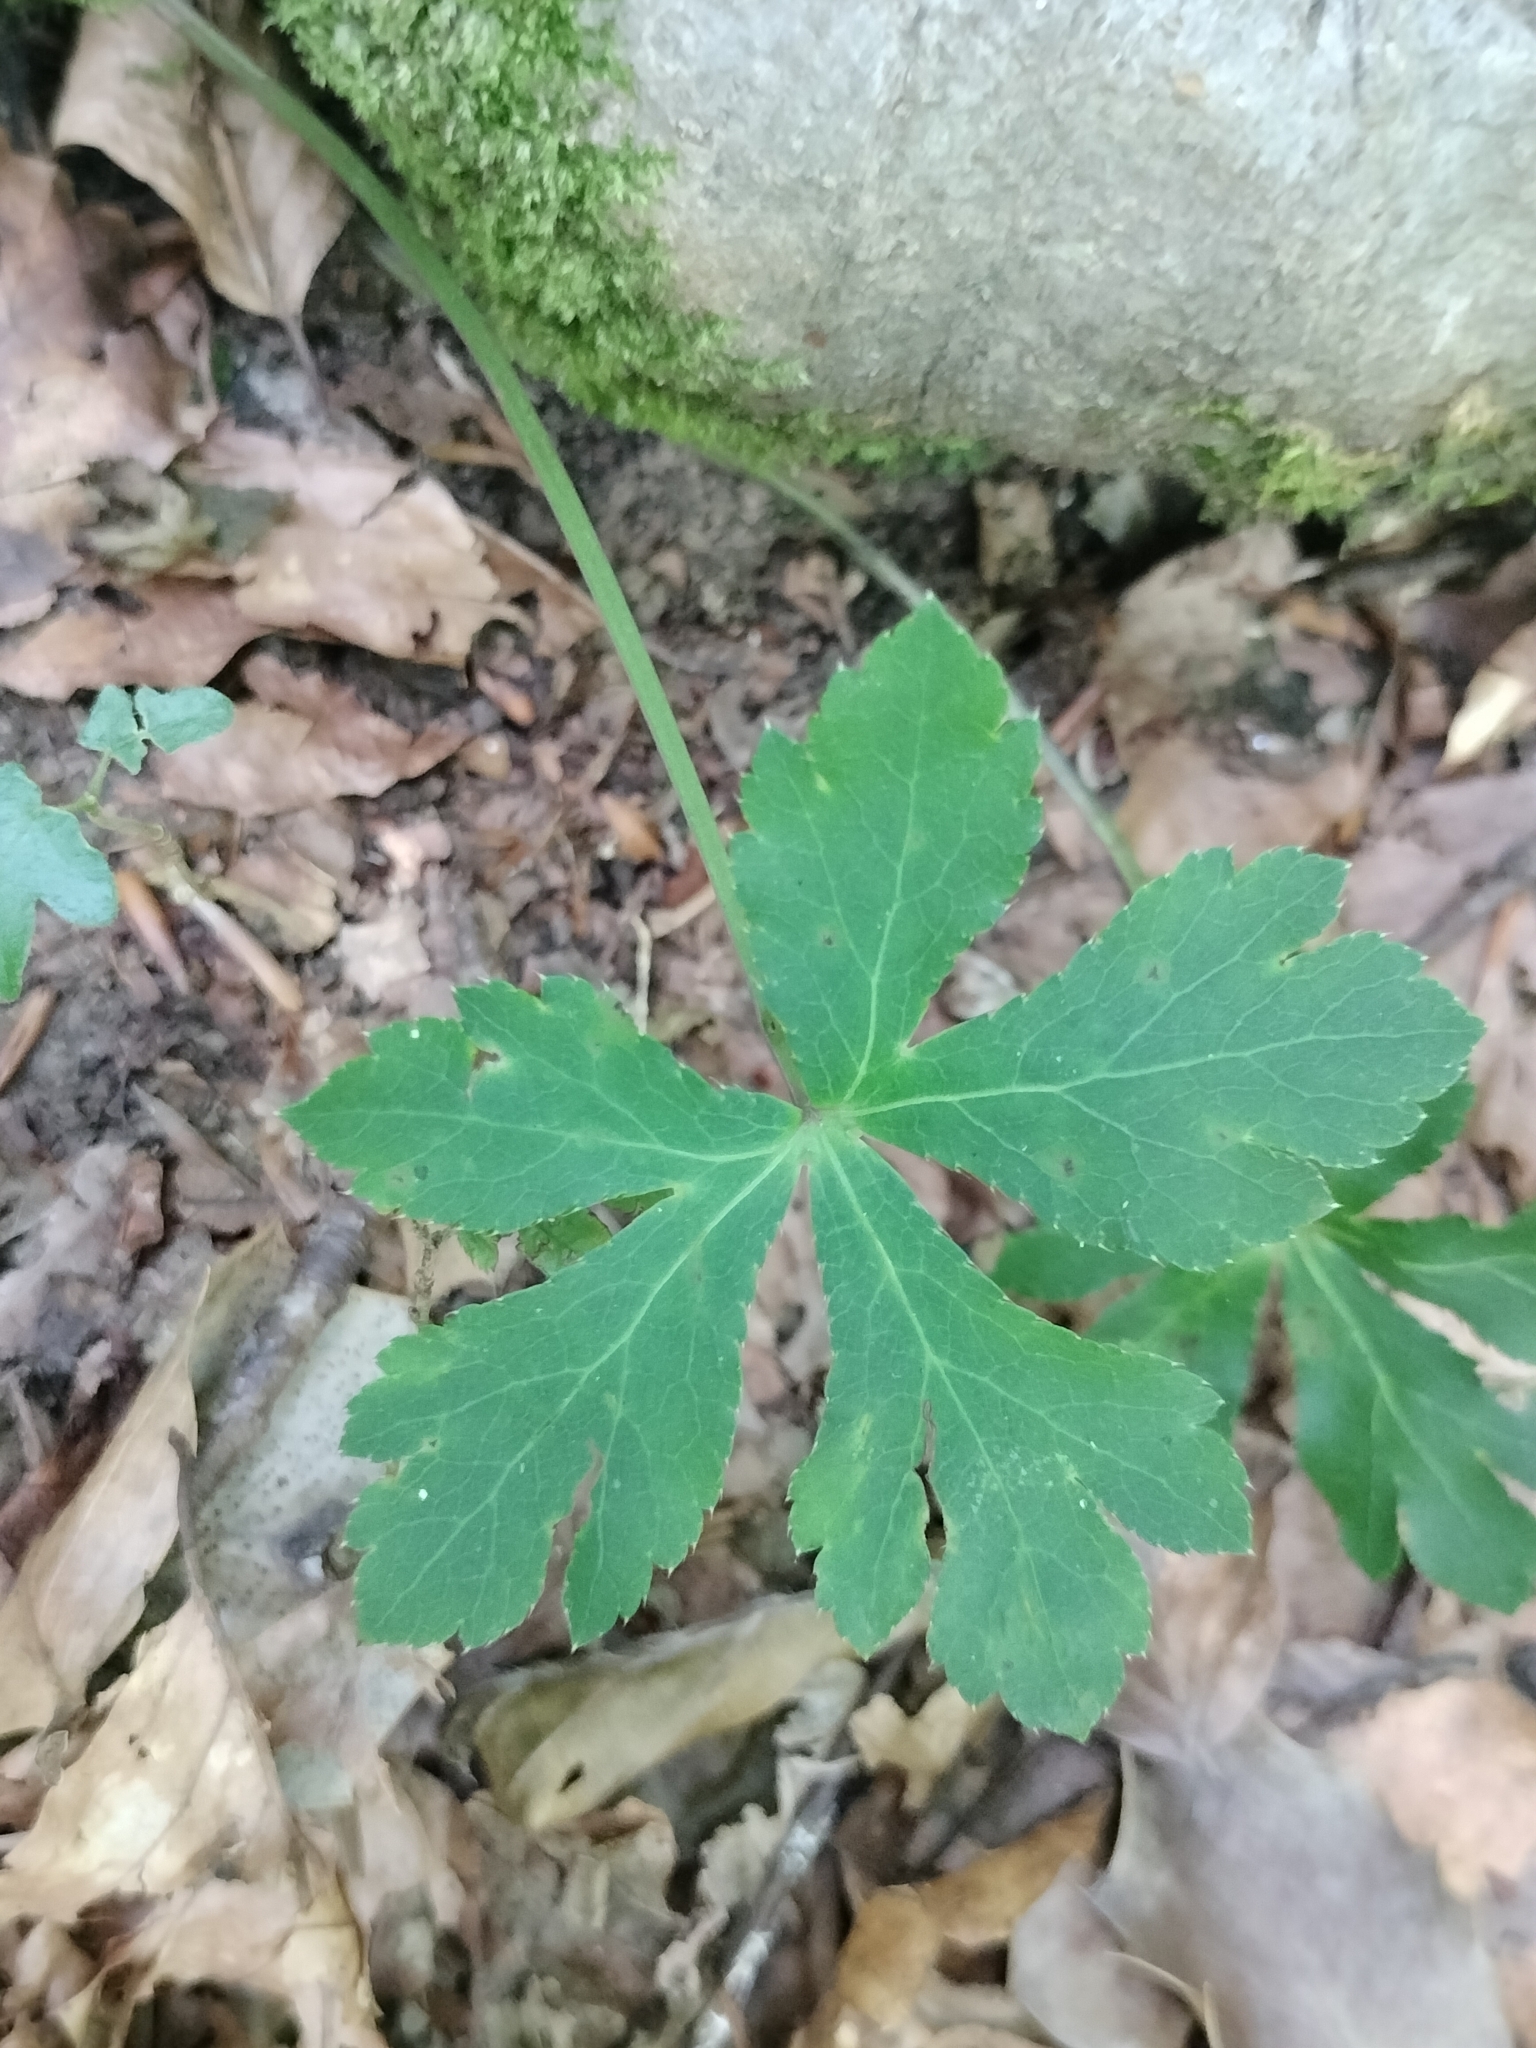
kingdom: Plantae
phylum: Tracheophyta
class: Magnoliopsida
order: Apiales
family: Apiaceae
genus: Sanicula
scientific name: Sanicula europaea
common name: Sanicle
